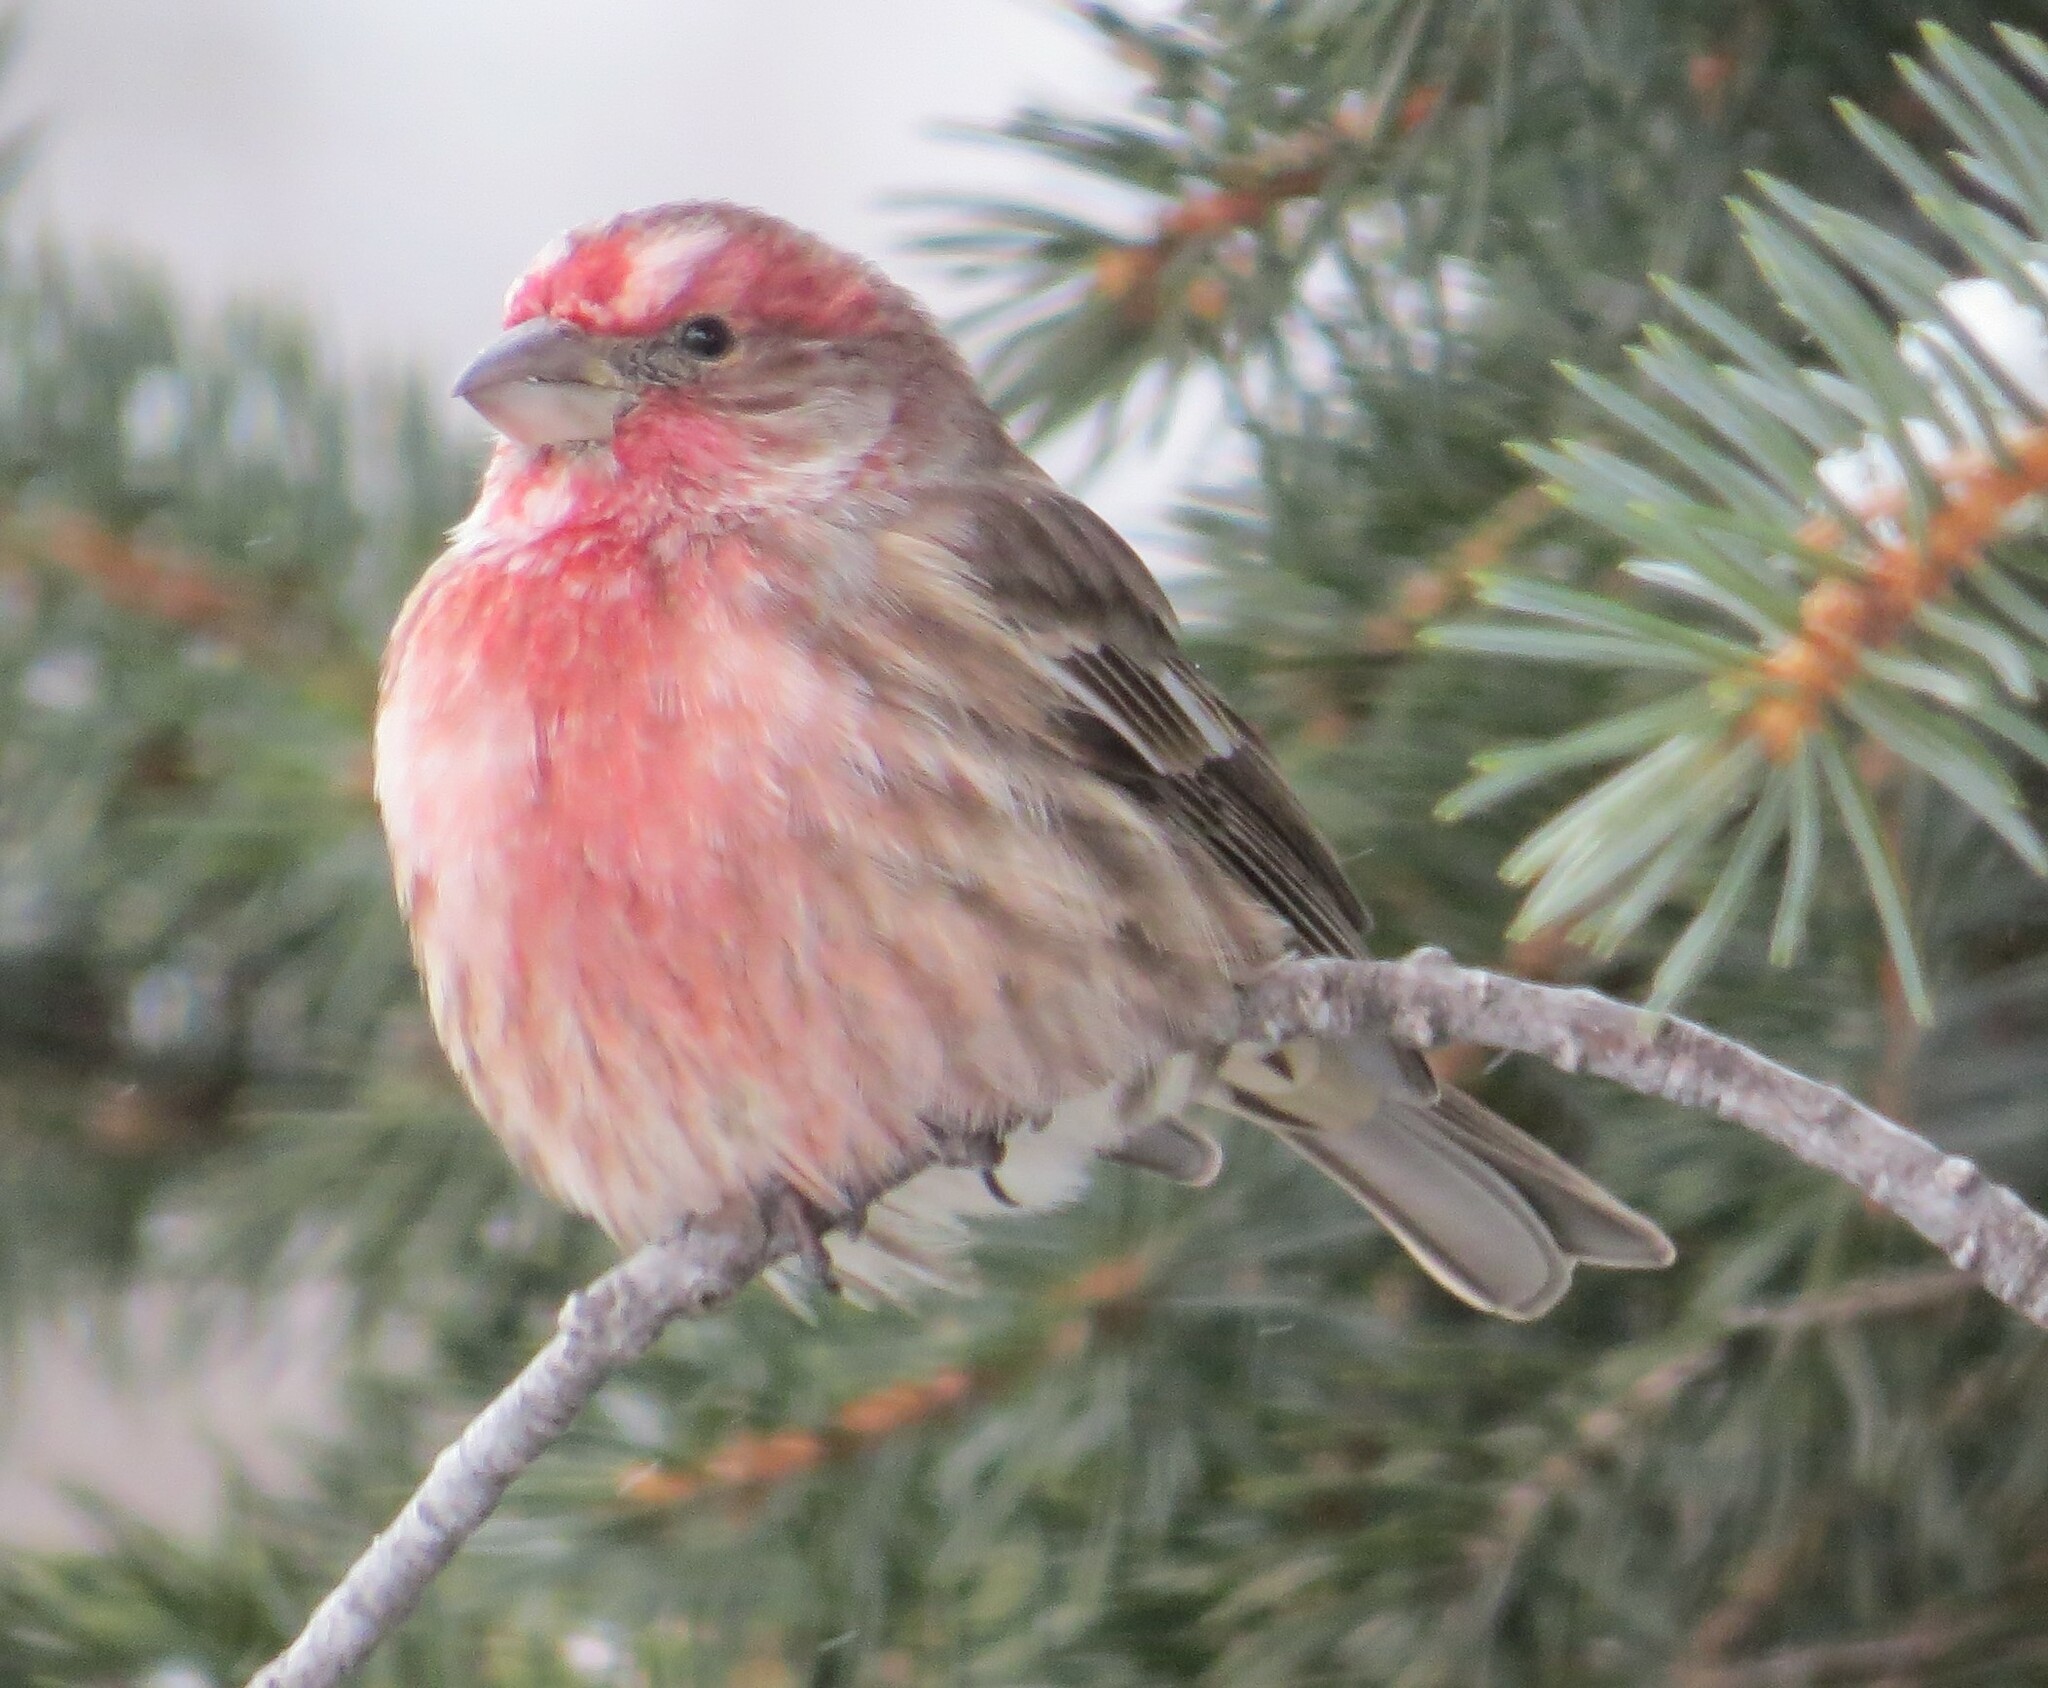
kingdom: Animalia
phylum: Chordata
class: Aves
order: Passeriformes
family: Fringillidae
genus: Haemorhous
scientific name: Haemorhous mexicanus
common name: House finch
